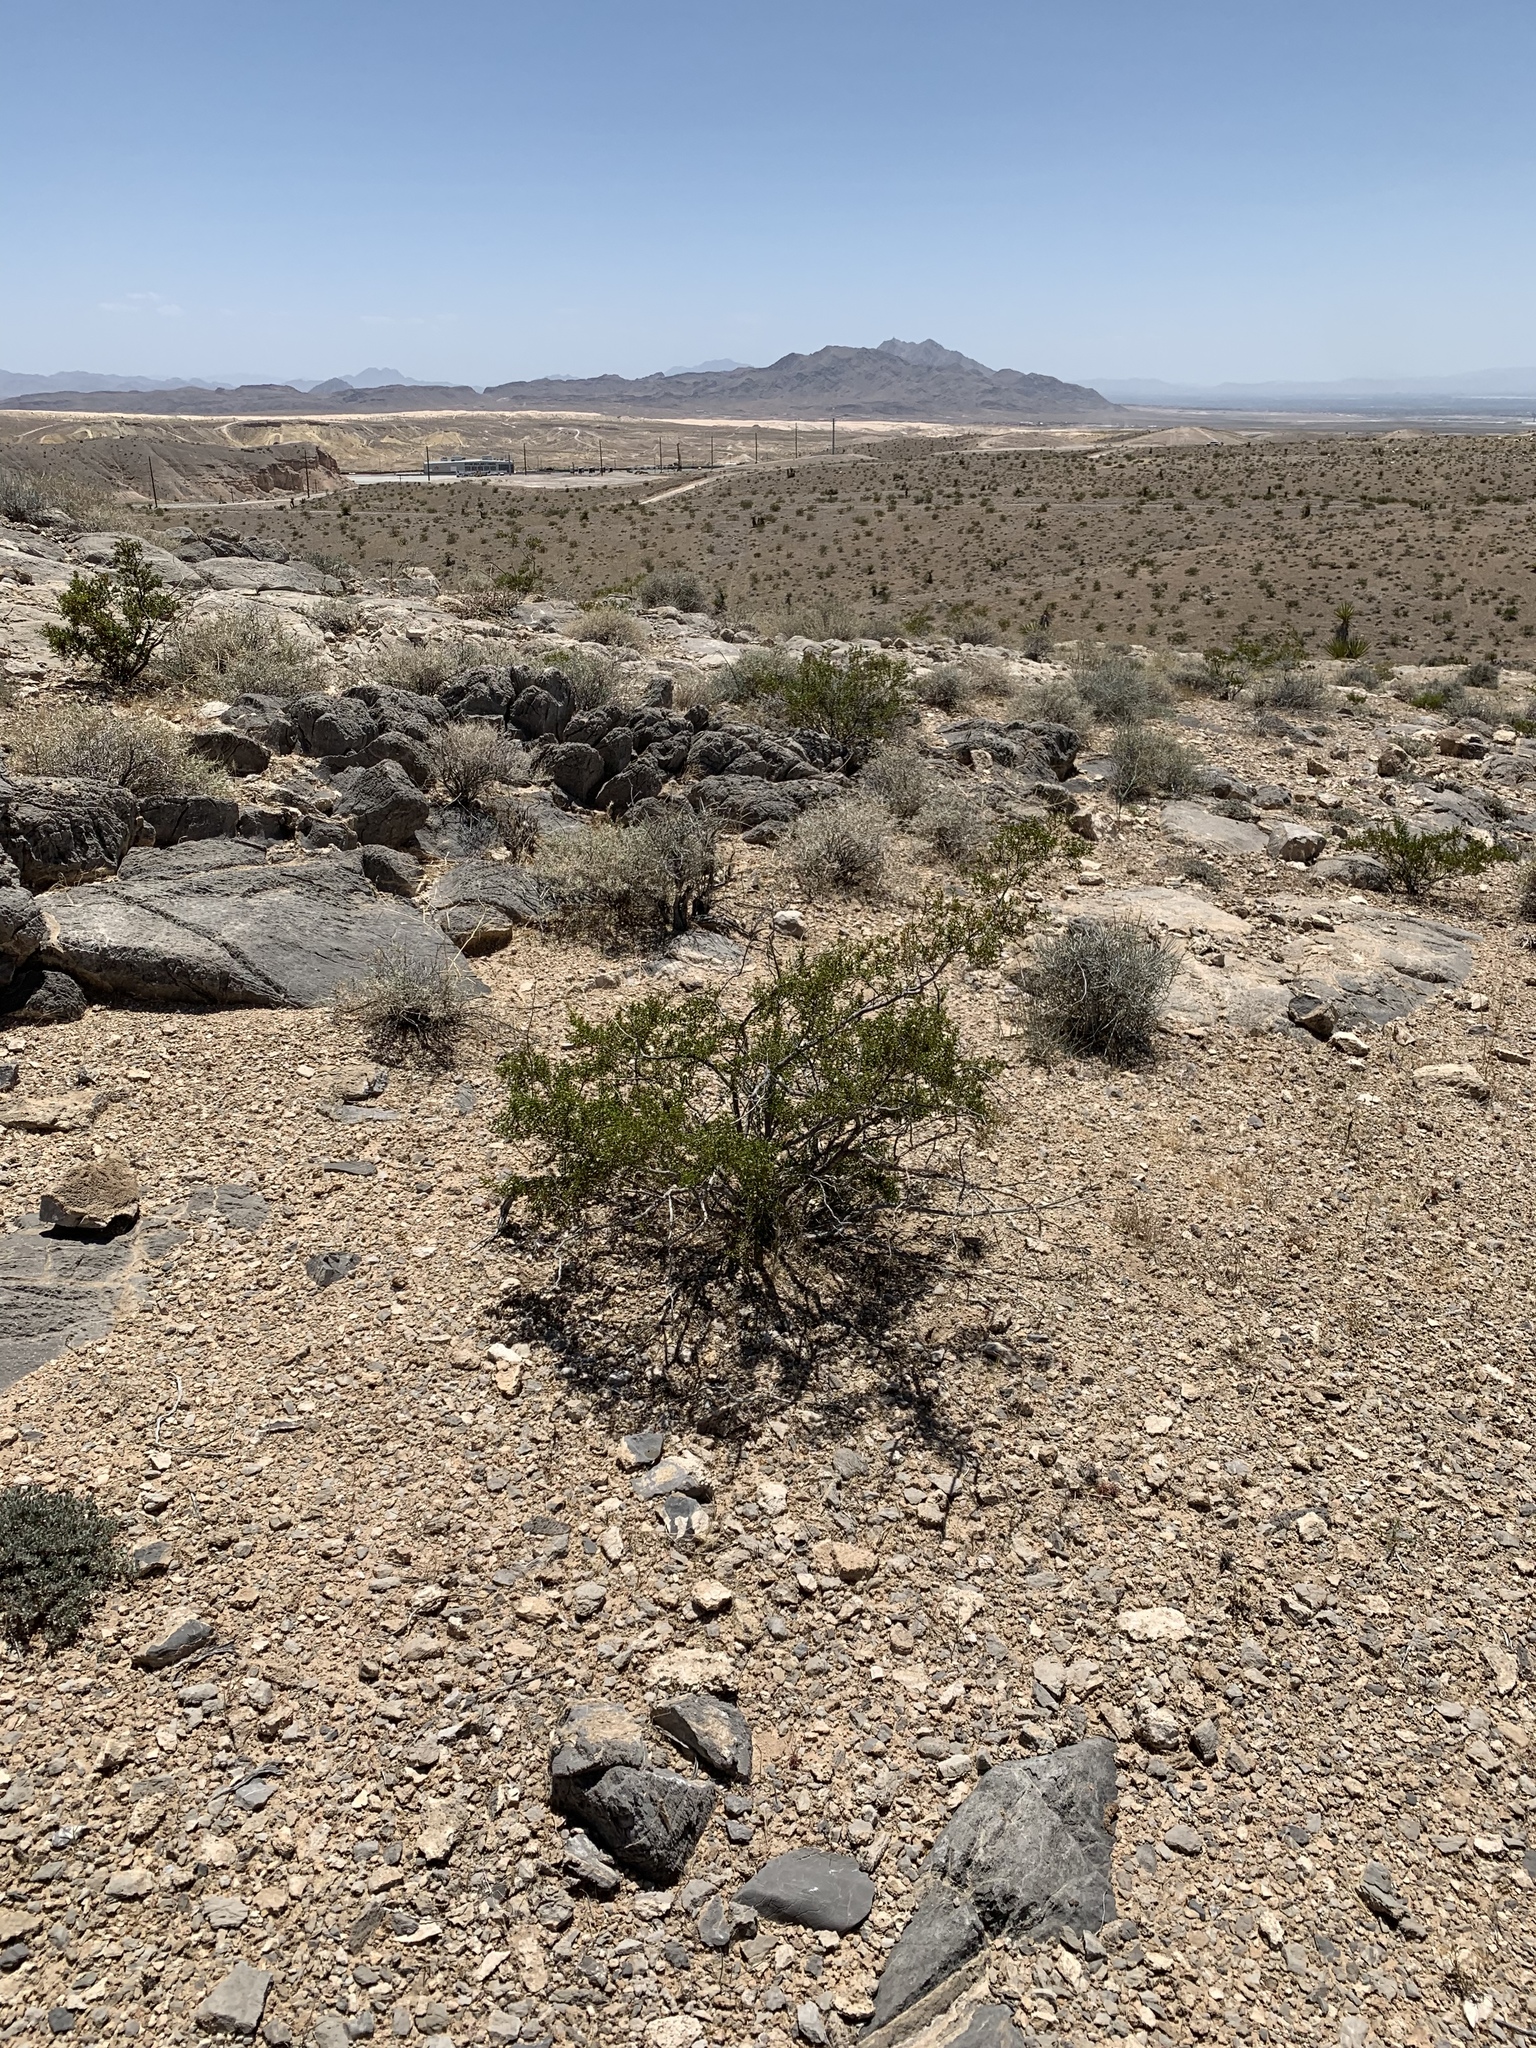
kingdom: Plantae
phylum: Tracheophyta
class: Magnoliopsida
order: Zygophyllales
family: Zygophyllaceae
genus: Larrea
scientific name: Larrea tridentata
